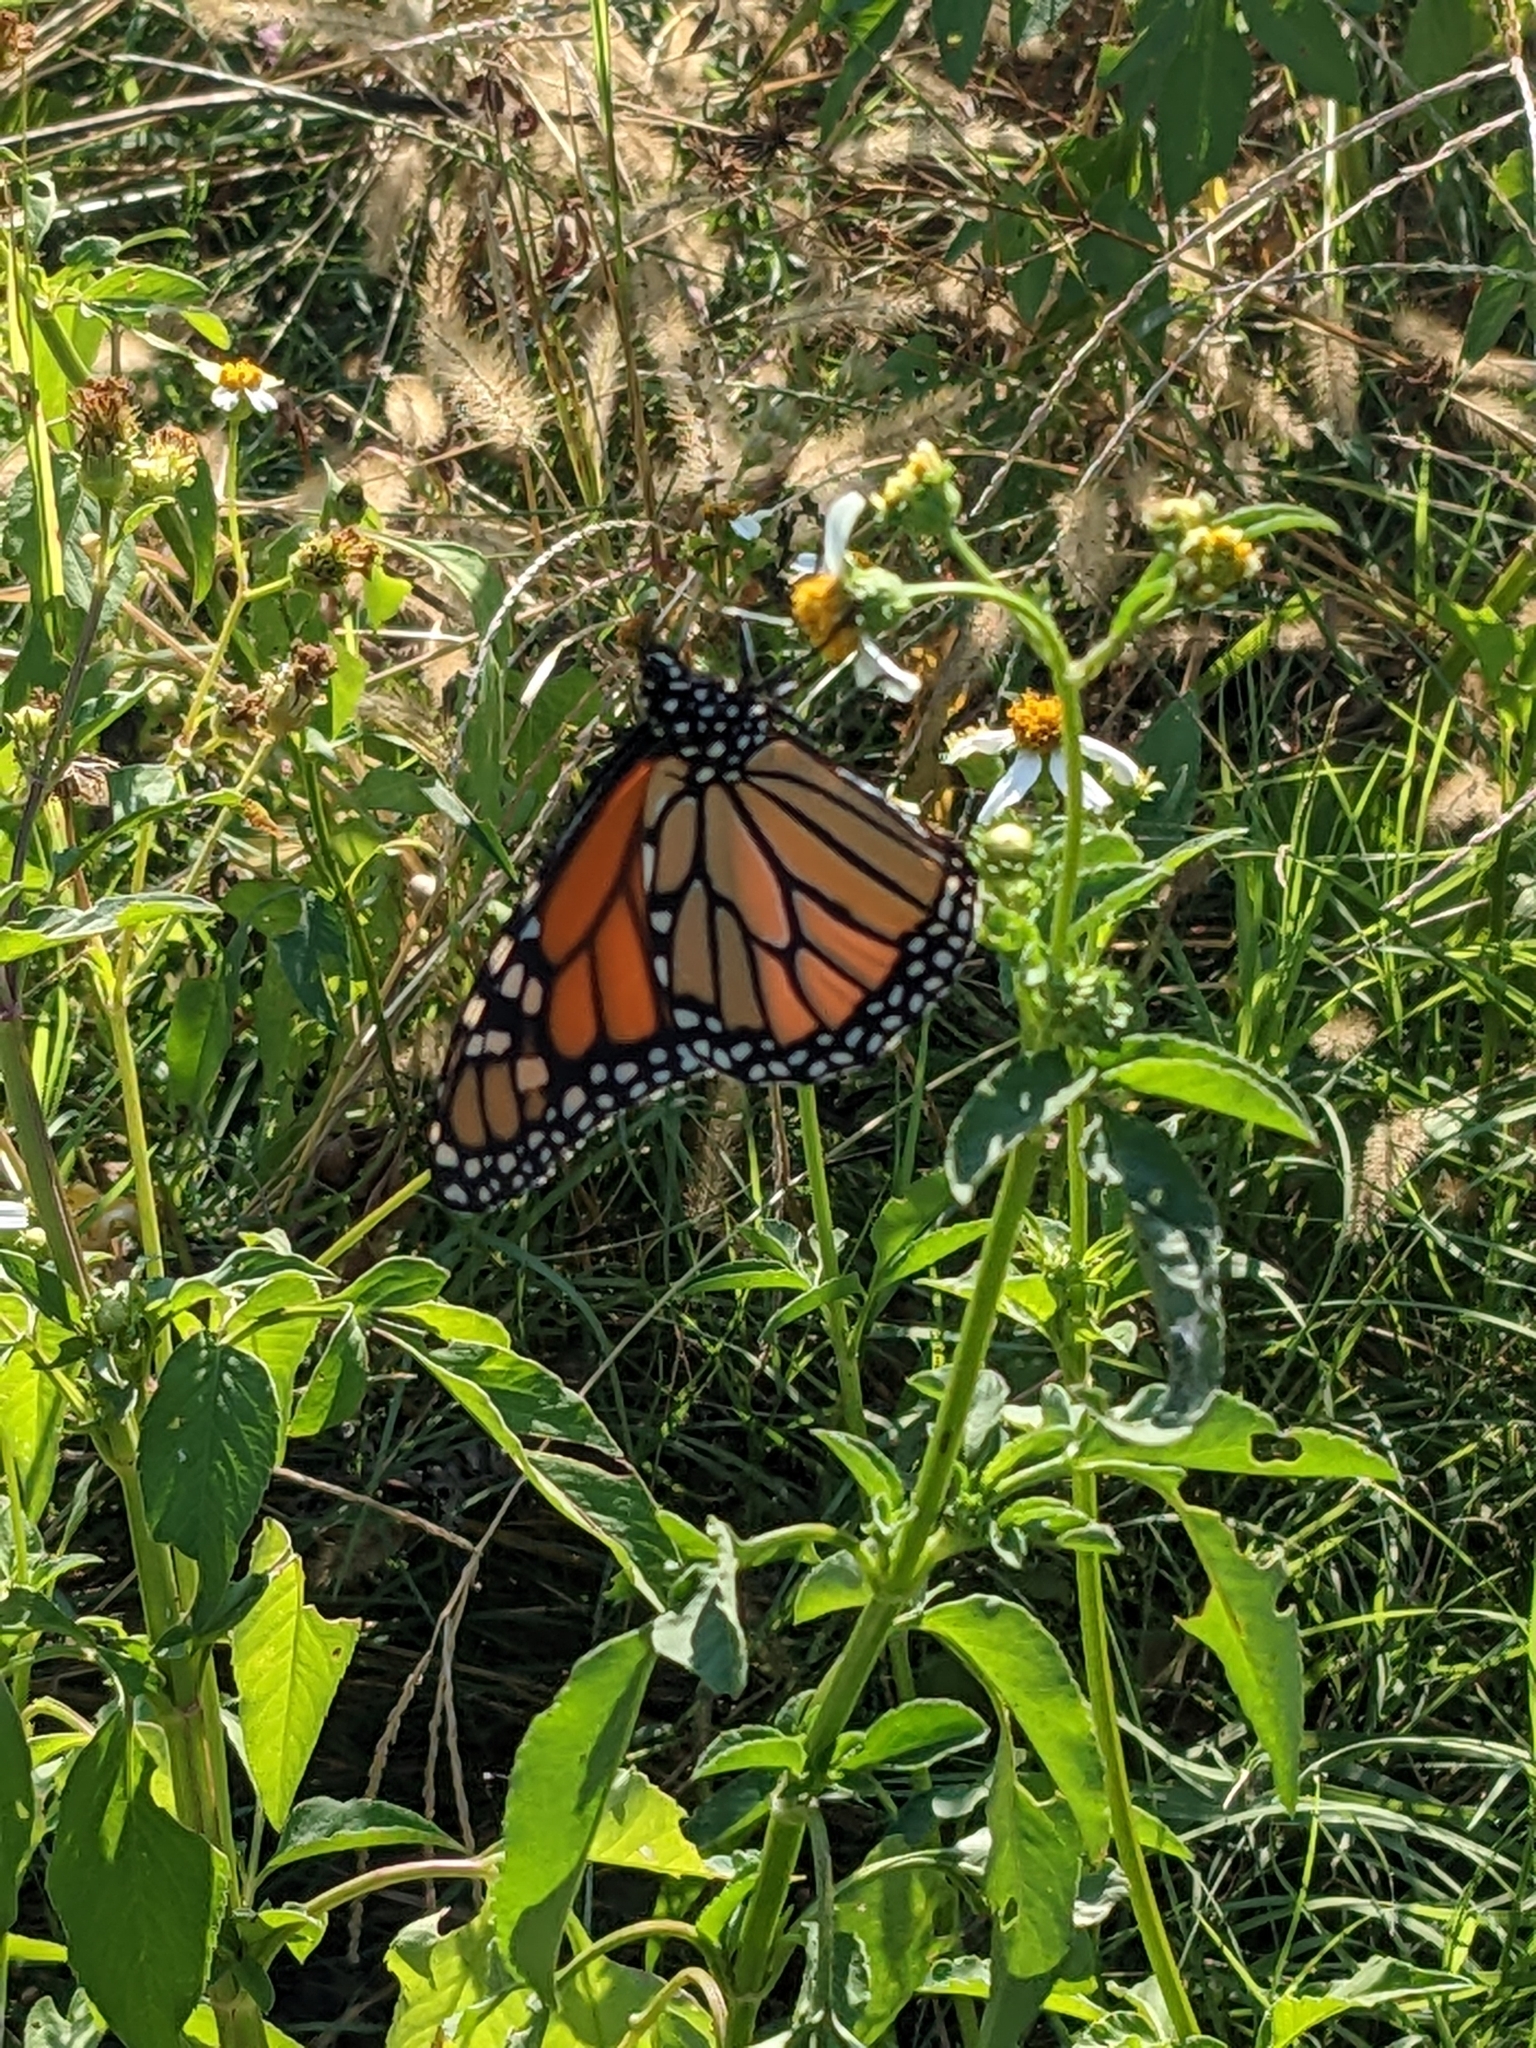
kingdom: Animalia
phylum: Arthropoda
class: Insecta
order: Lepidoptera
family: Nymphalidae
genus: Danaus
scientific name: Danaus plexippus
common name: Monarch
